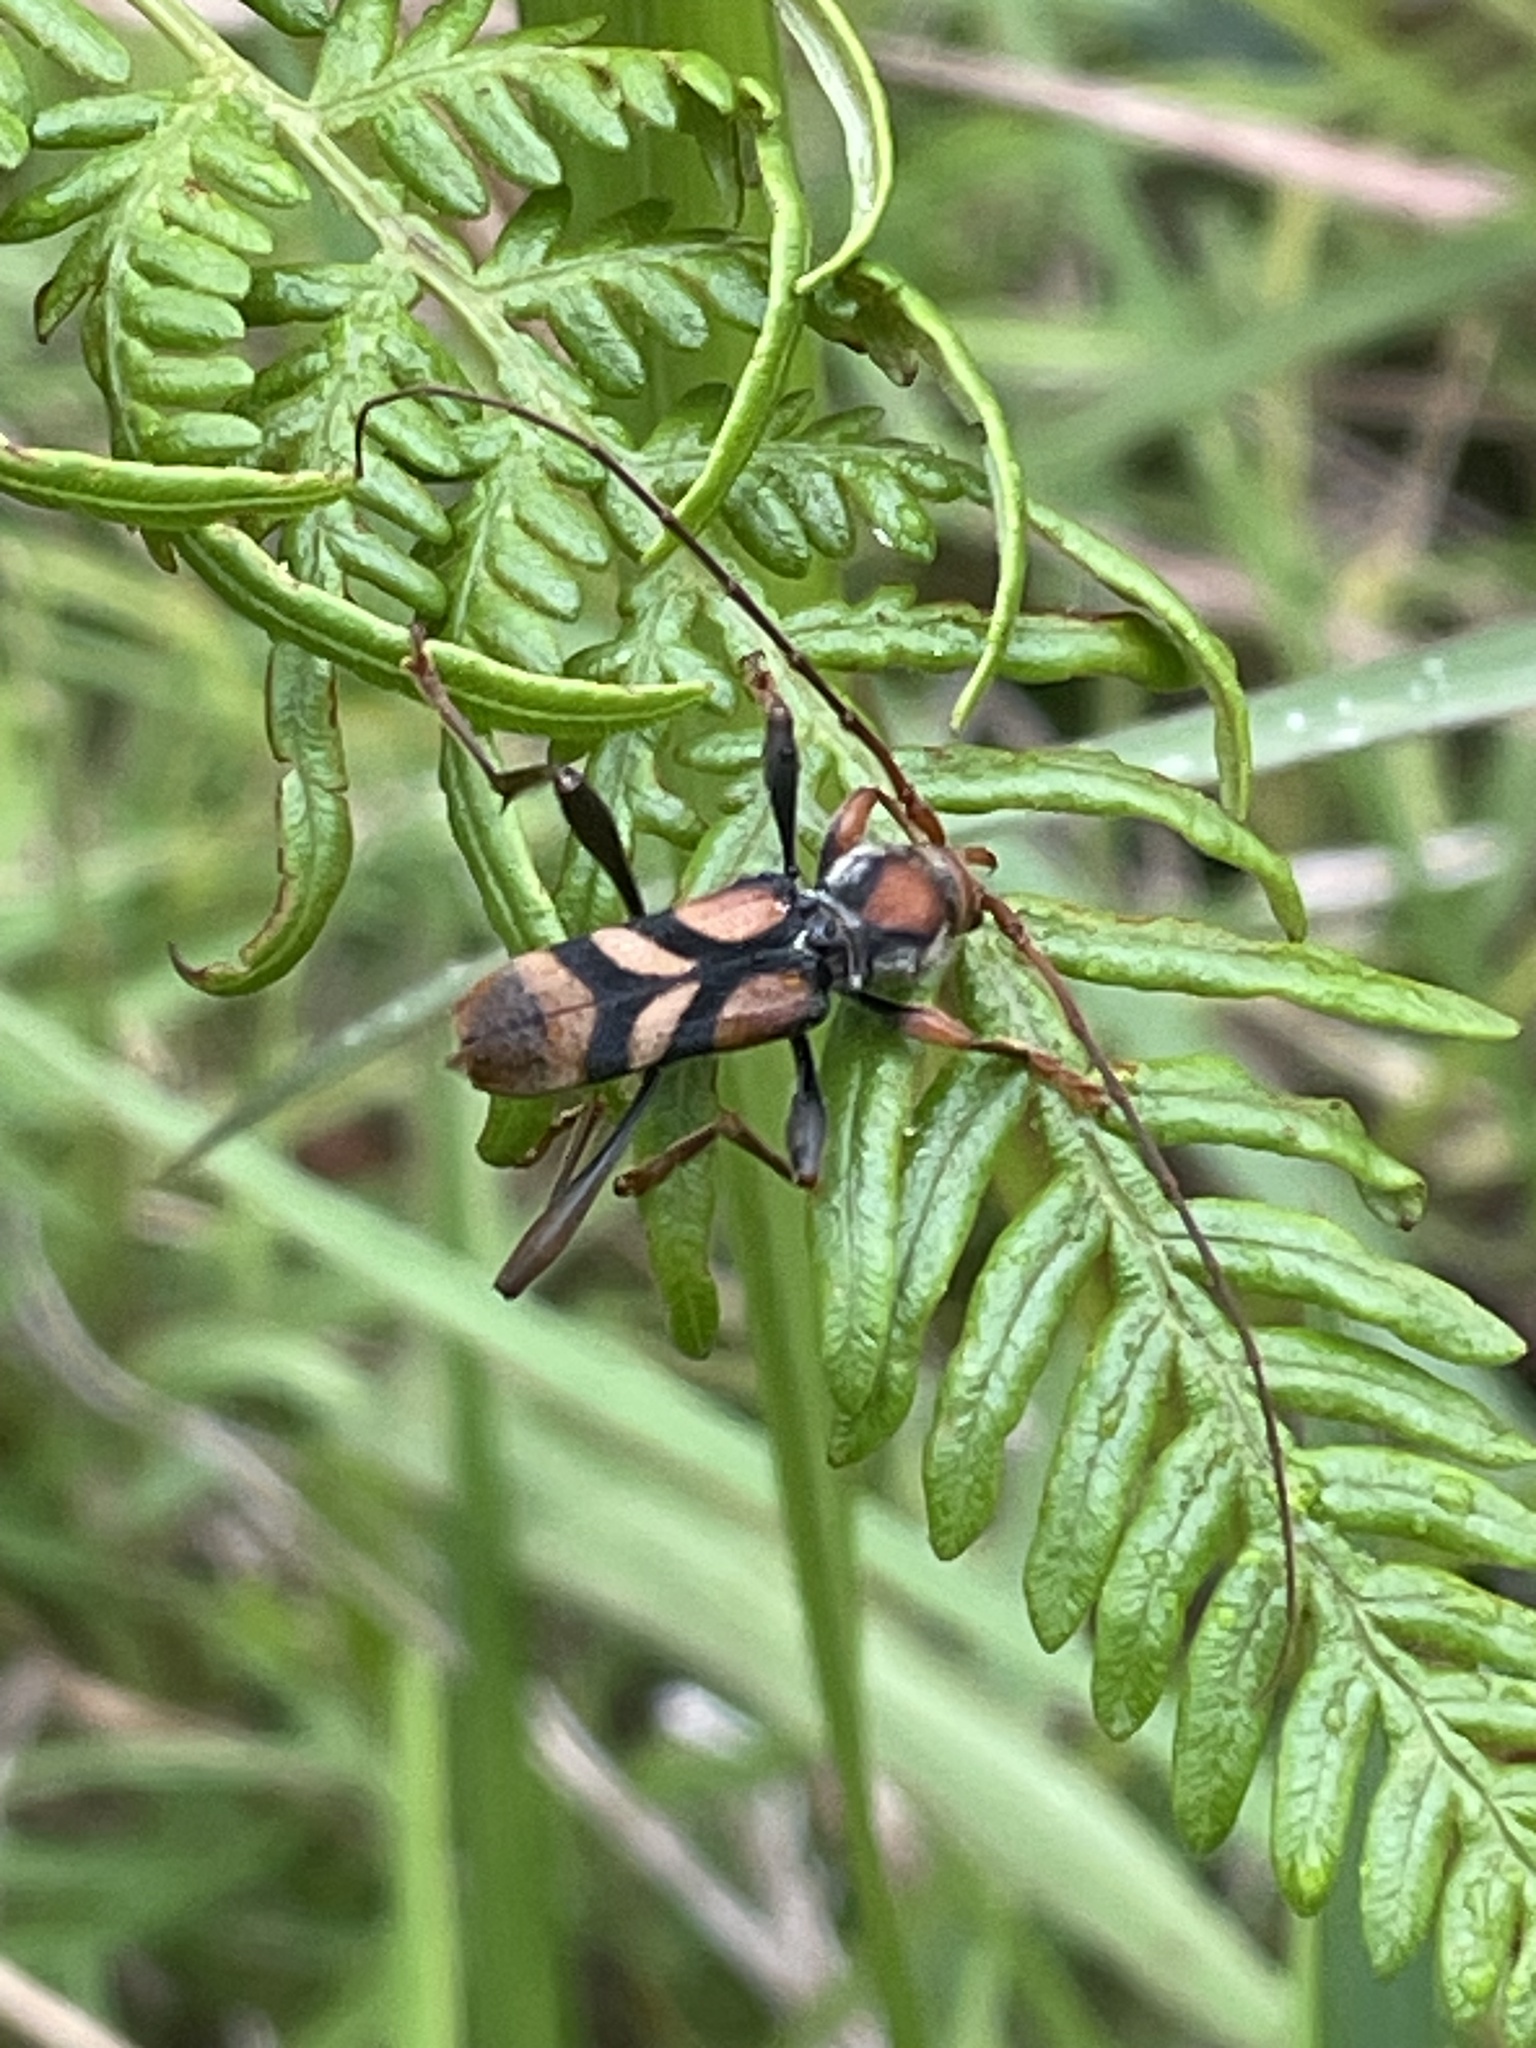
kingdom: Animalia
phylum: Arthropoda
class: Insecta
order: Coleoptera
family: Cerambycidae
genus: Aridaeus
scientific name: Aridaeus thoracicus
